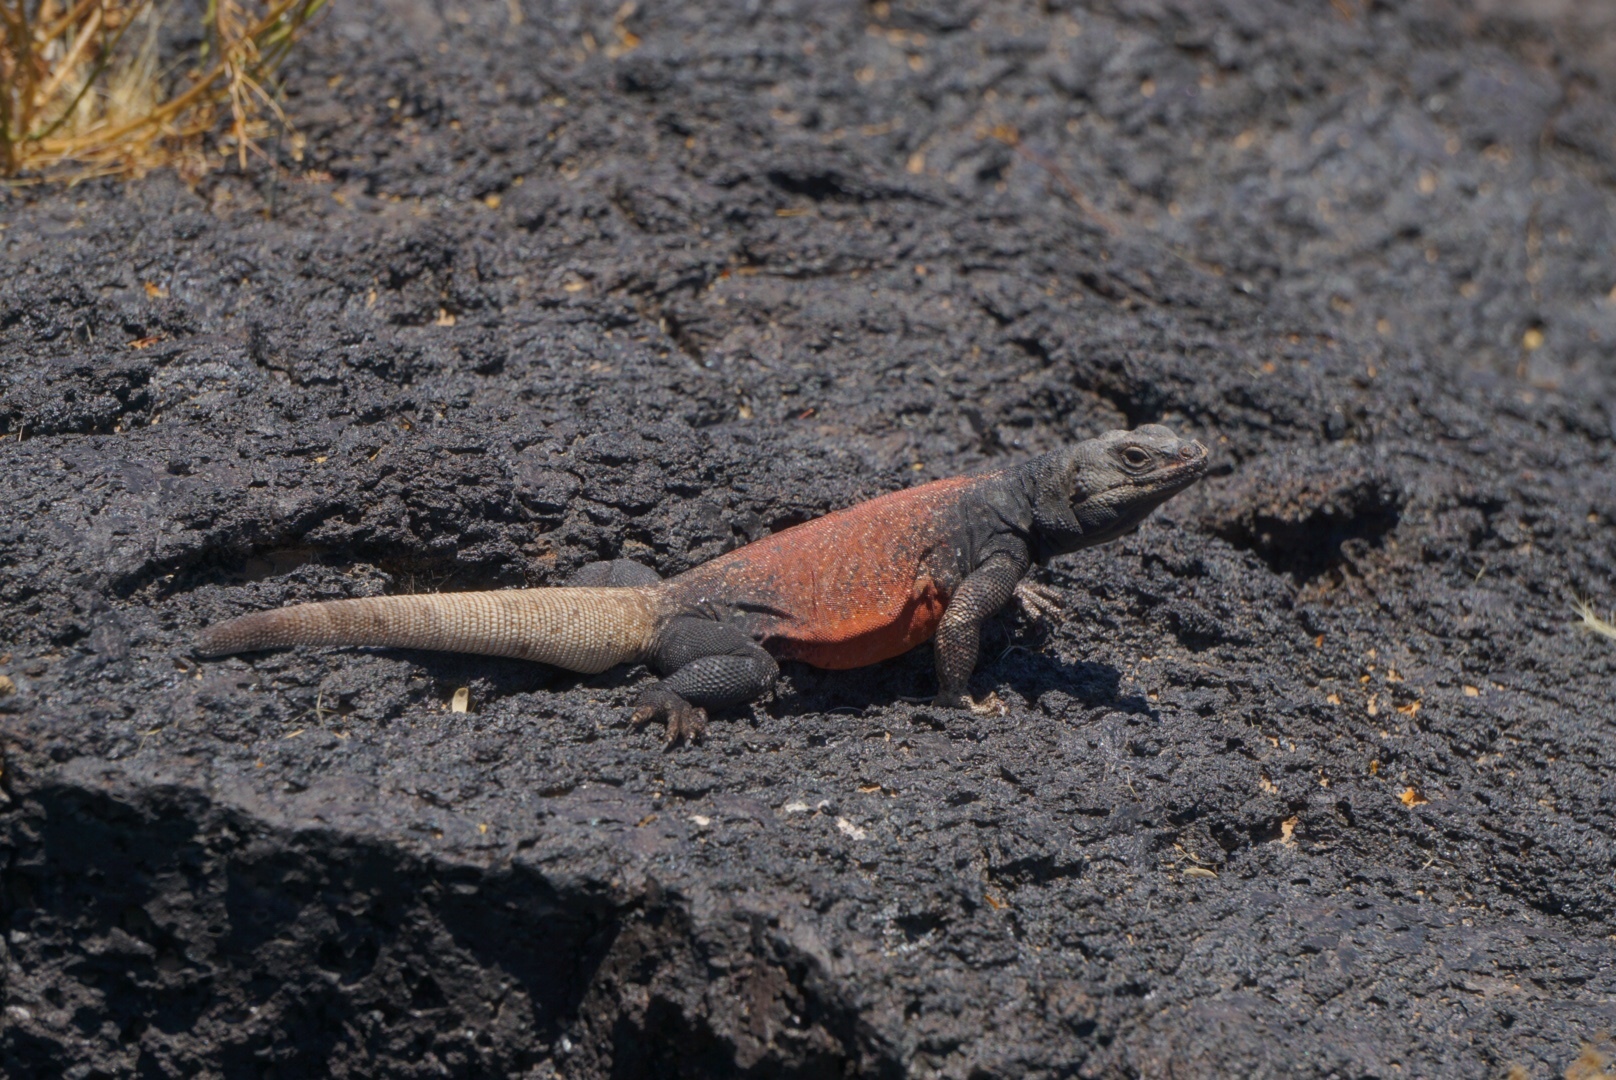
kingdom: Animalia
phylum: Chordata
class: Squamata
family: Iguanidae
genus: Sauromalus
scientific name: Sauromalus ater
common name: Northern chuckwalla
